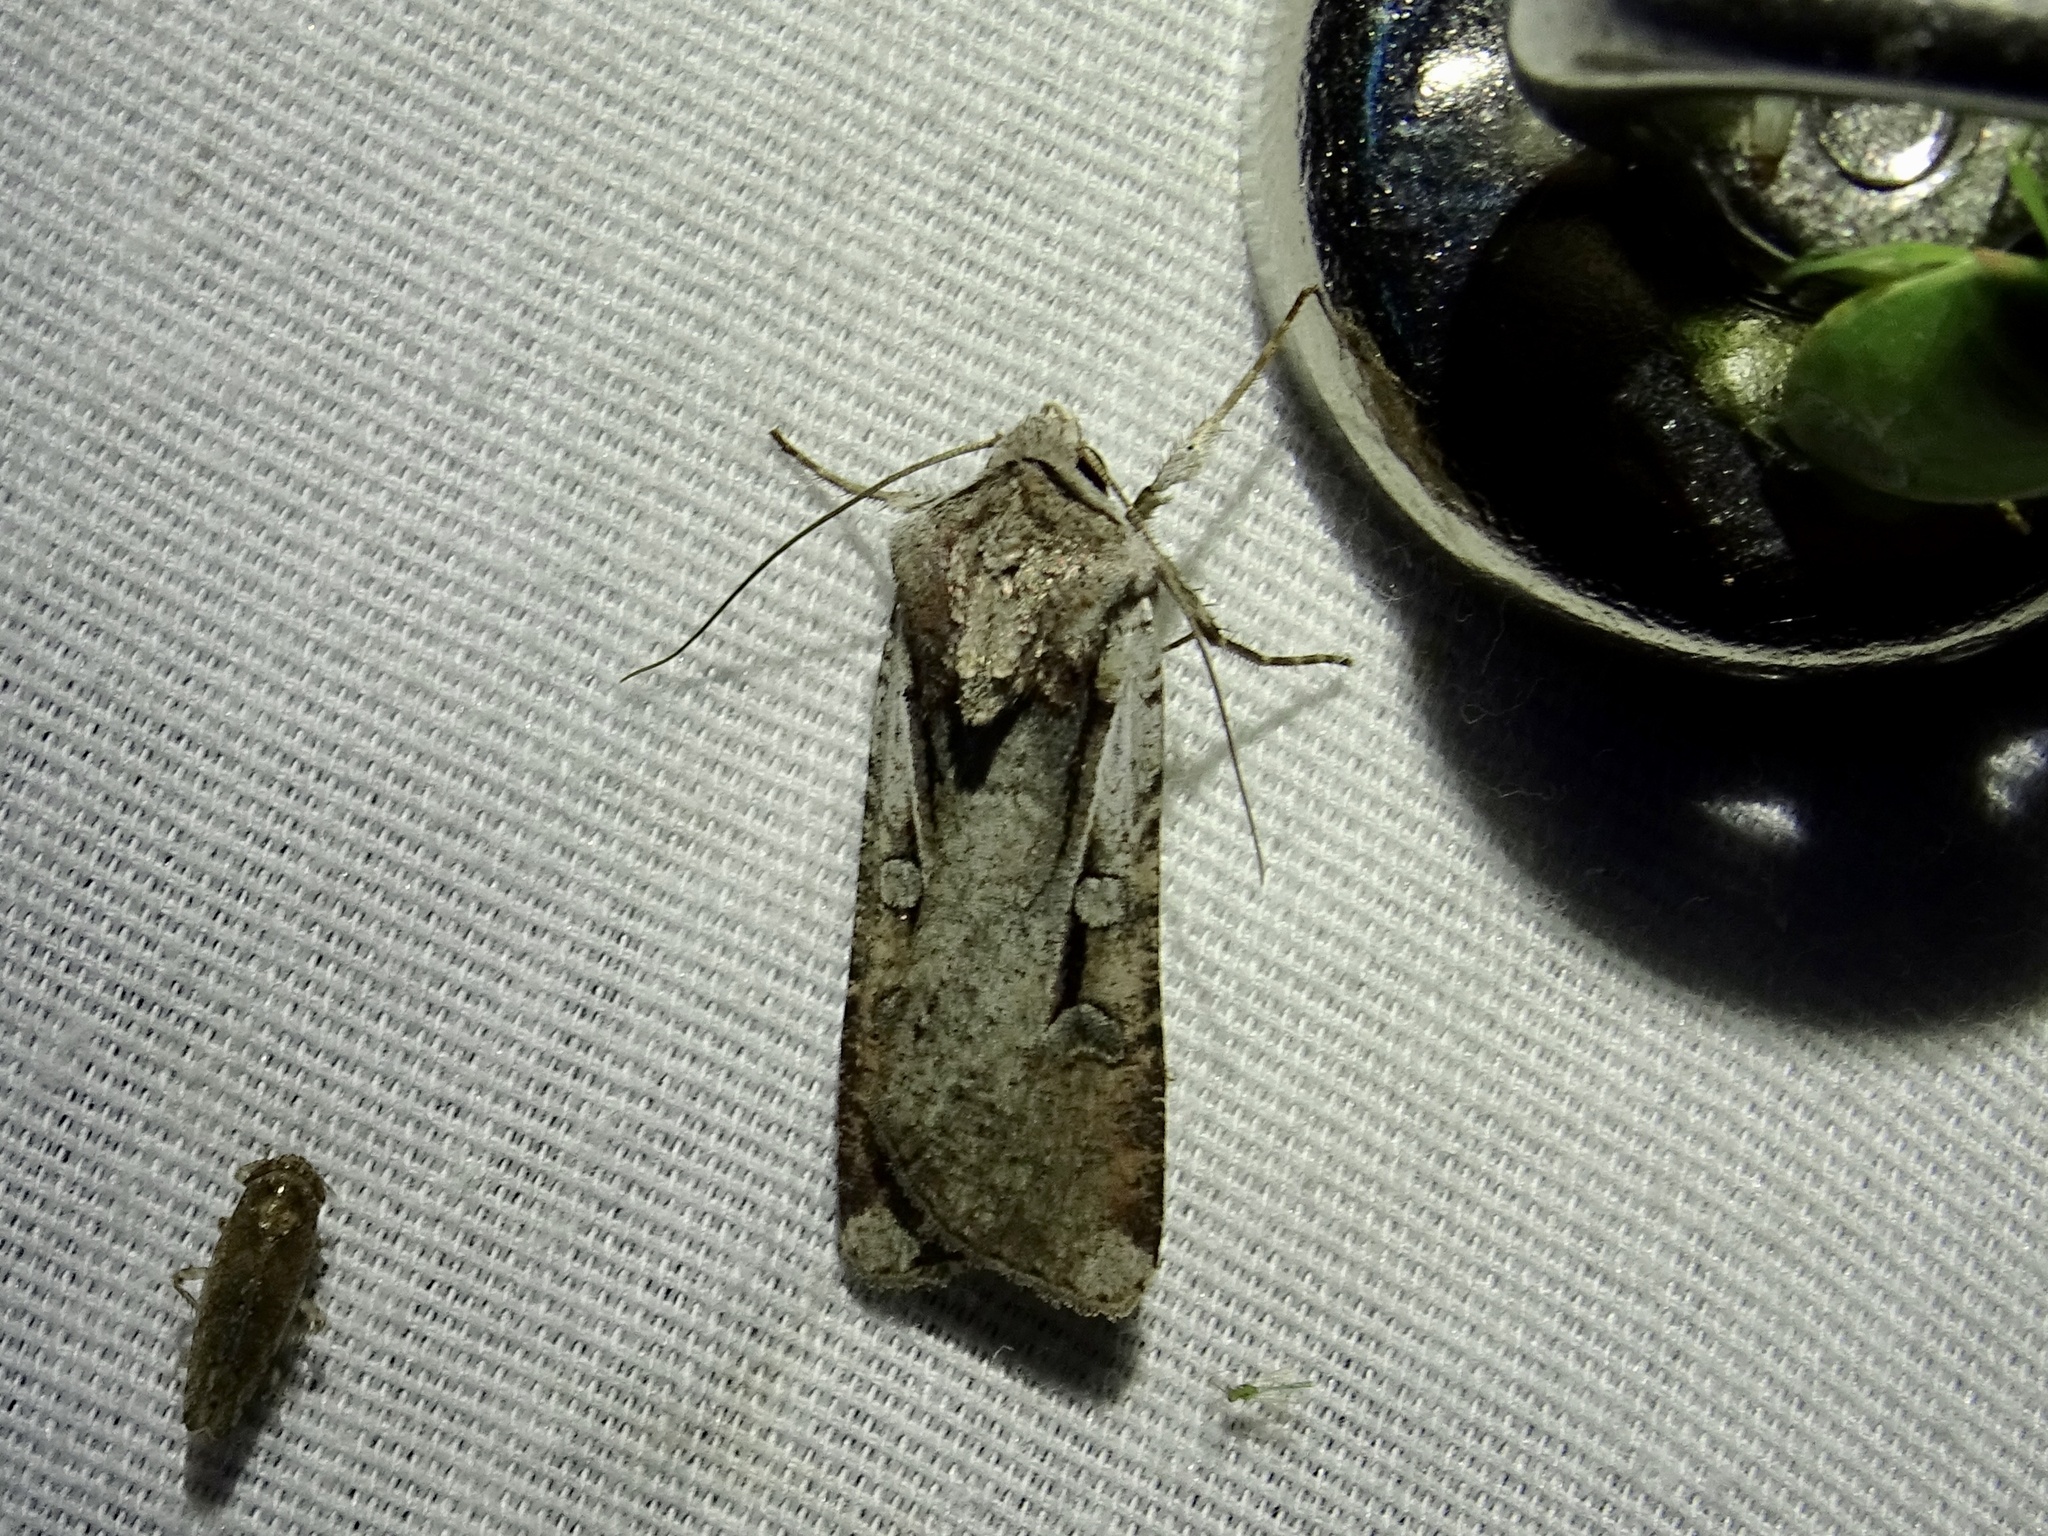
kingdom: Animalia
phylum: Arthropoda
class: Insecta
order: Lepidoptera
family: Noctuidae
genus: Hemieuxoa
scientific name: Hemieuxoa rudens
